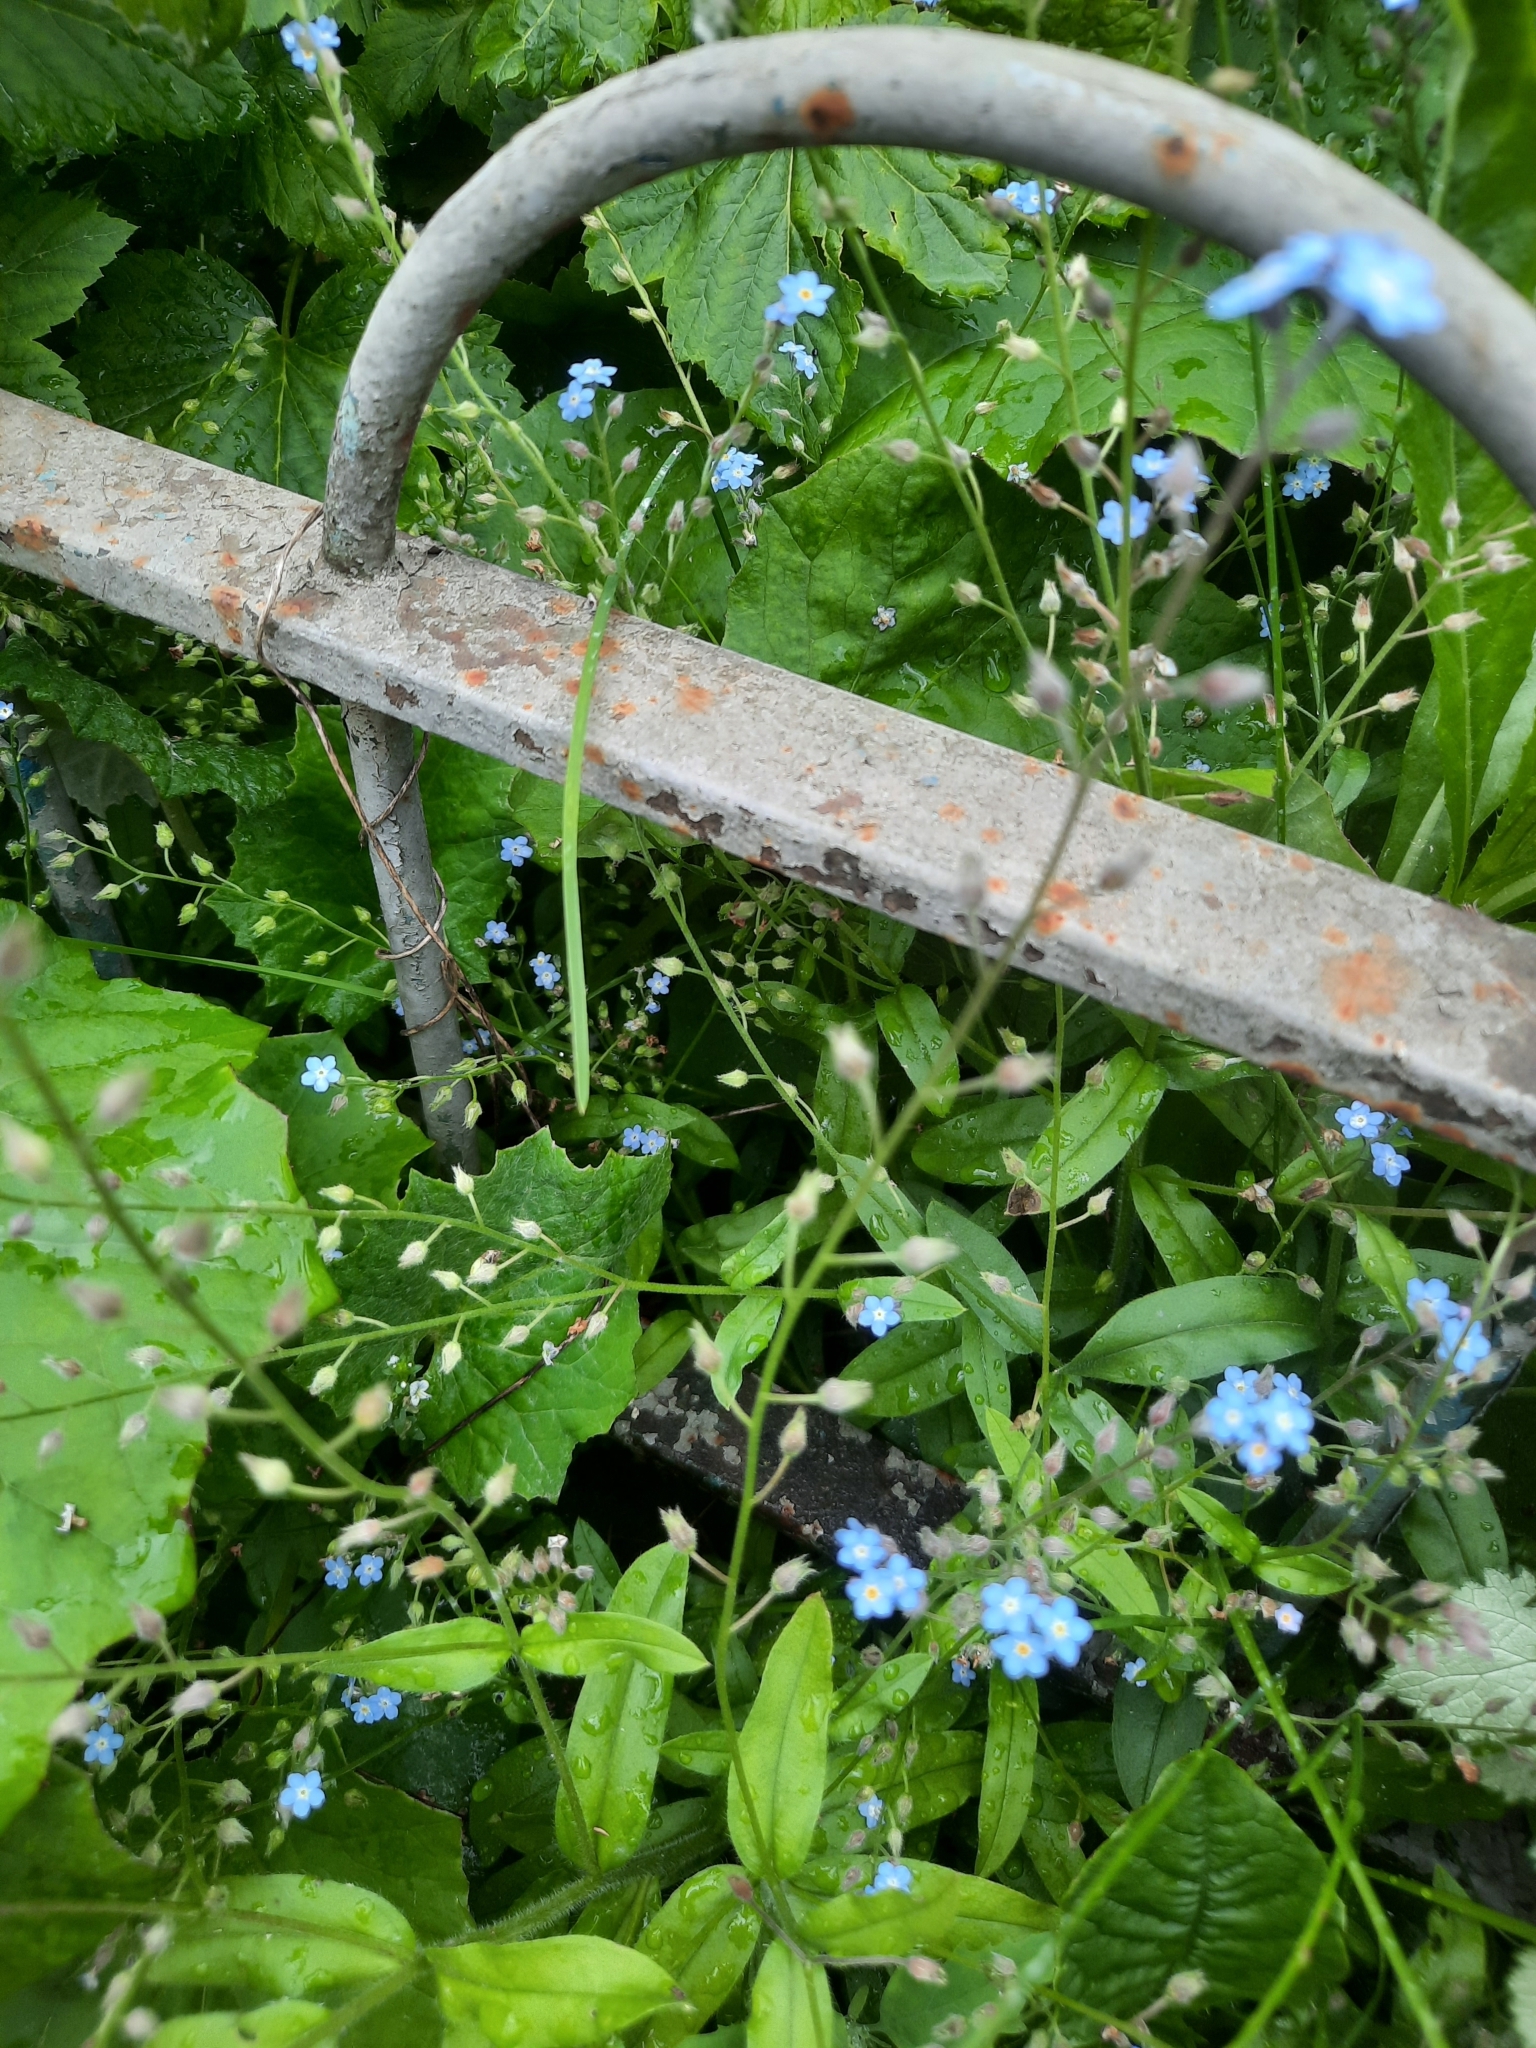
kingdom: Plantae
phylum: Tracheophyta
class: Magnoliopsida
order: Boraginales
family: Boraginaceae
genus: Myosotis
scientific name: Myosotis sylvatica
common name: Wood forget-me-not
